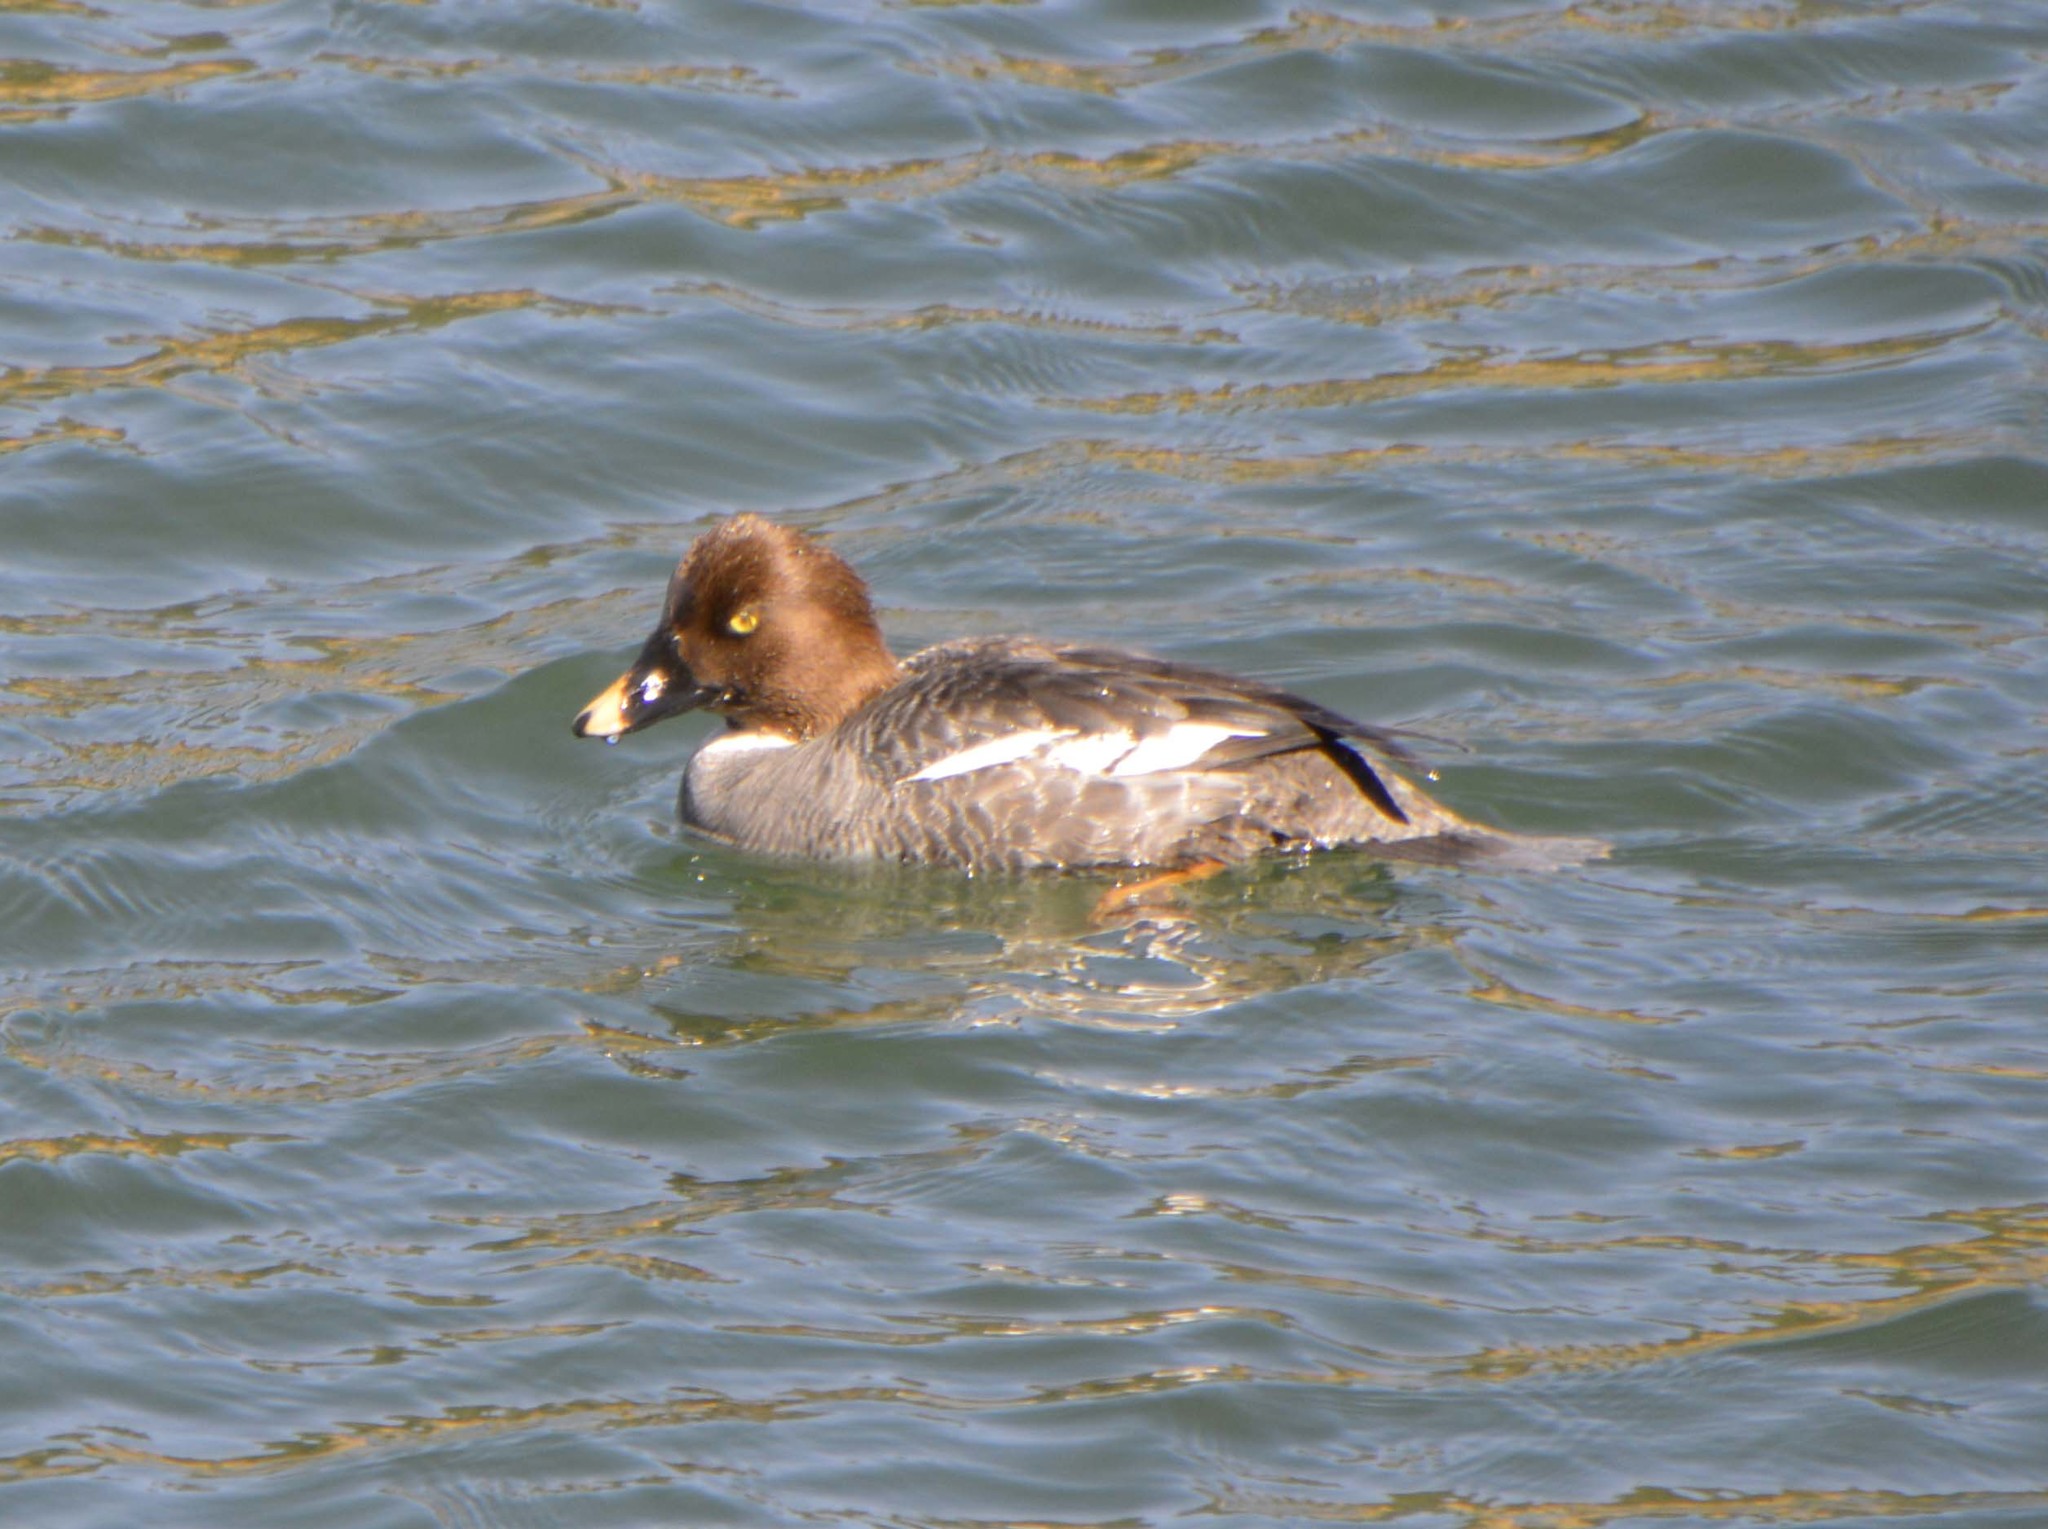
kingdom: Animalia
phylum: Chordata
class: Aves
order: Anseriformes
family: Anatidae
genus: Bucephala
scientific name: Bucephala clangula
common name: Common goldeneye
